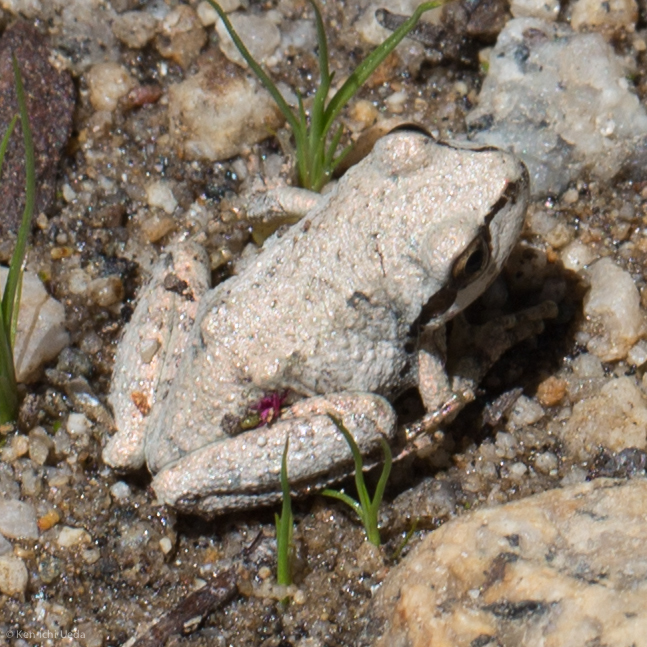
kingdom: Animalia
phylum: Chordata
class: Amphibia
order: Anura
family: Hylidae
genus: Pseudacris
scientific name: Pseudacris regilla
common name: Pacific chorus frog
